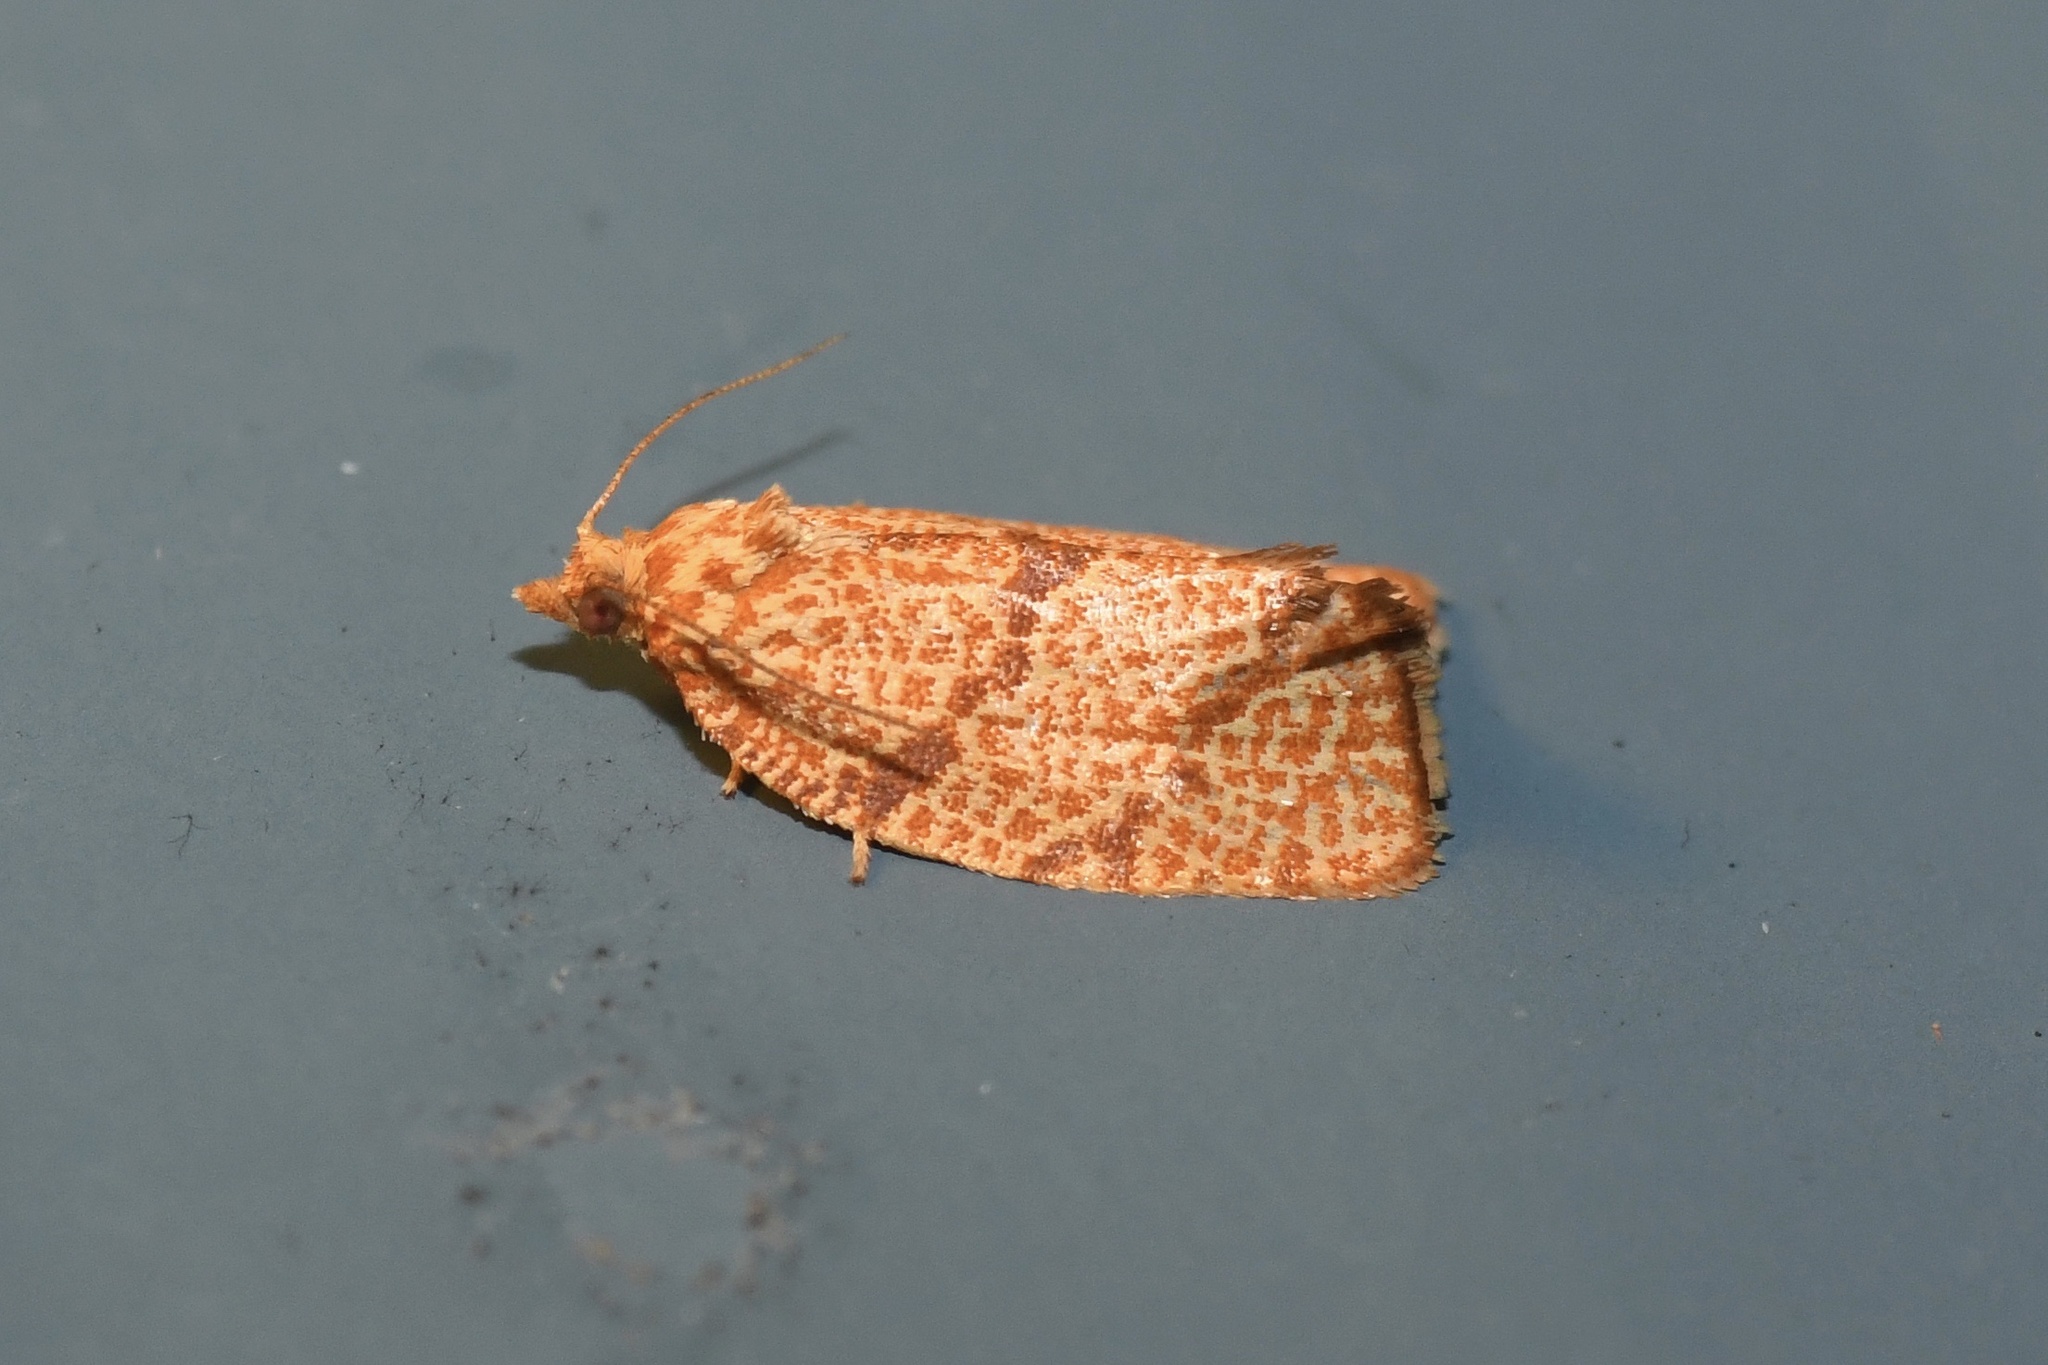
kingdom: Animalia
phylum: Arthropoda
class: Insecta
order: Lepidoptera
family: Tortricidae
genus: Argyrotaenia
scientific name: Argyrotaenia quadrifasciana
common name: Four-lined leafroller moth
